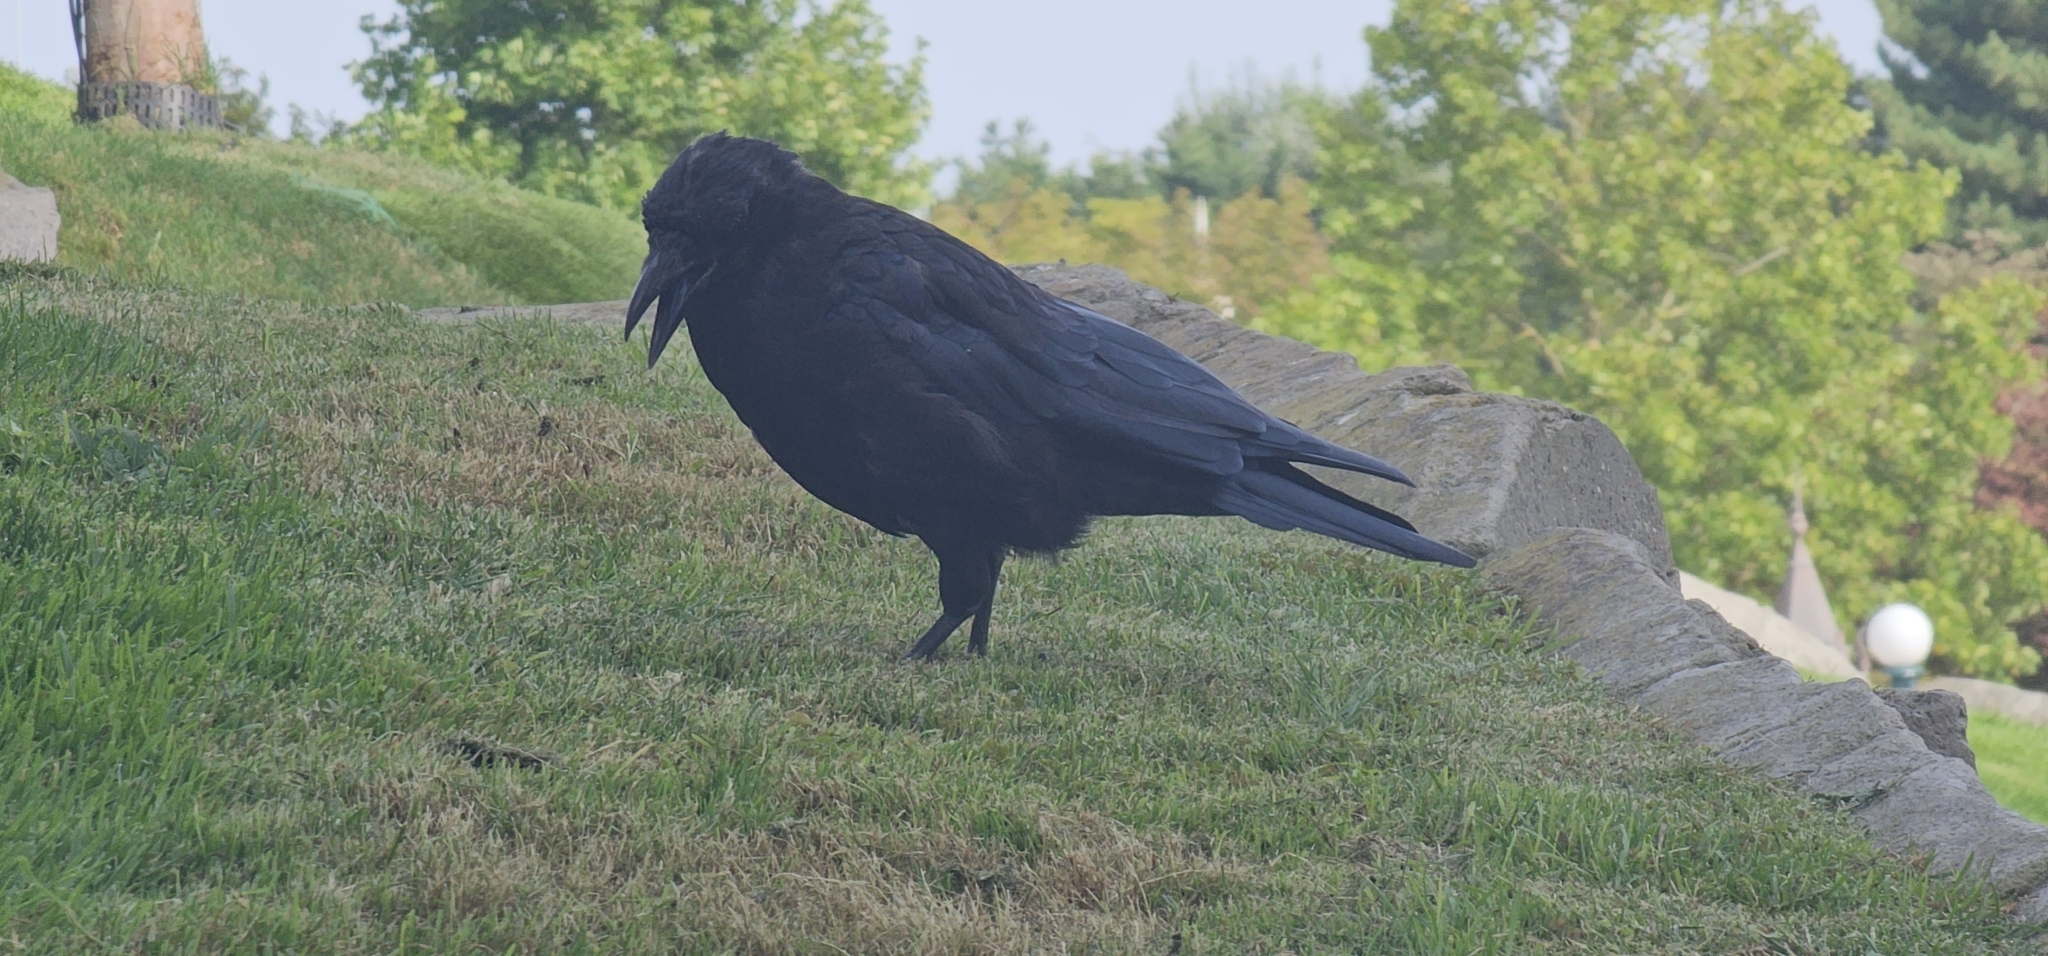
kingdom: Animalia
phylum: Chordata
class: Aves
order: Passeriformes
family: Corvidae
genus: Corvus
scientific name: Corvus corone
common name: Carrion crow
